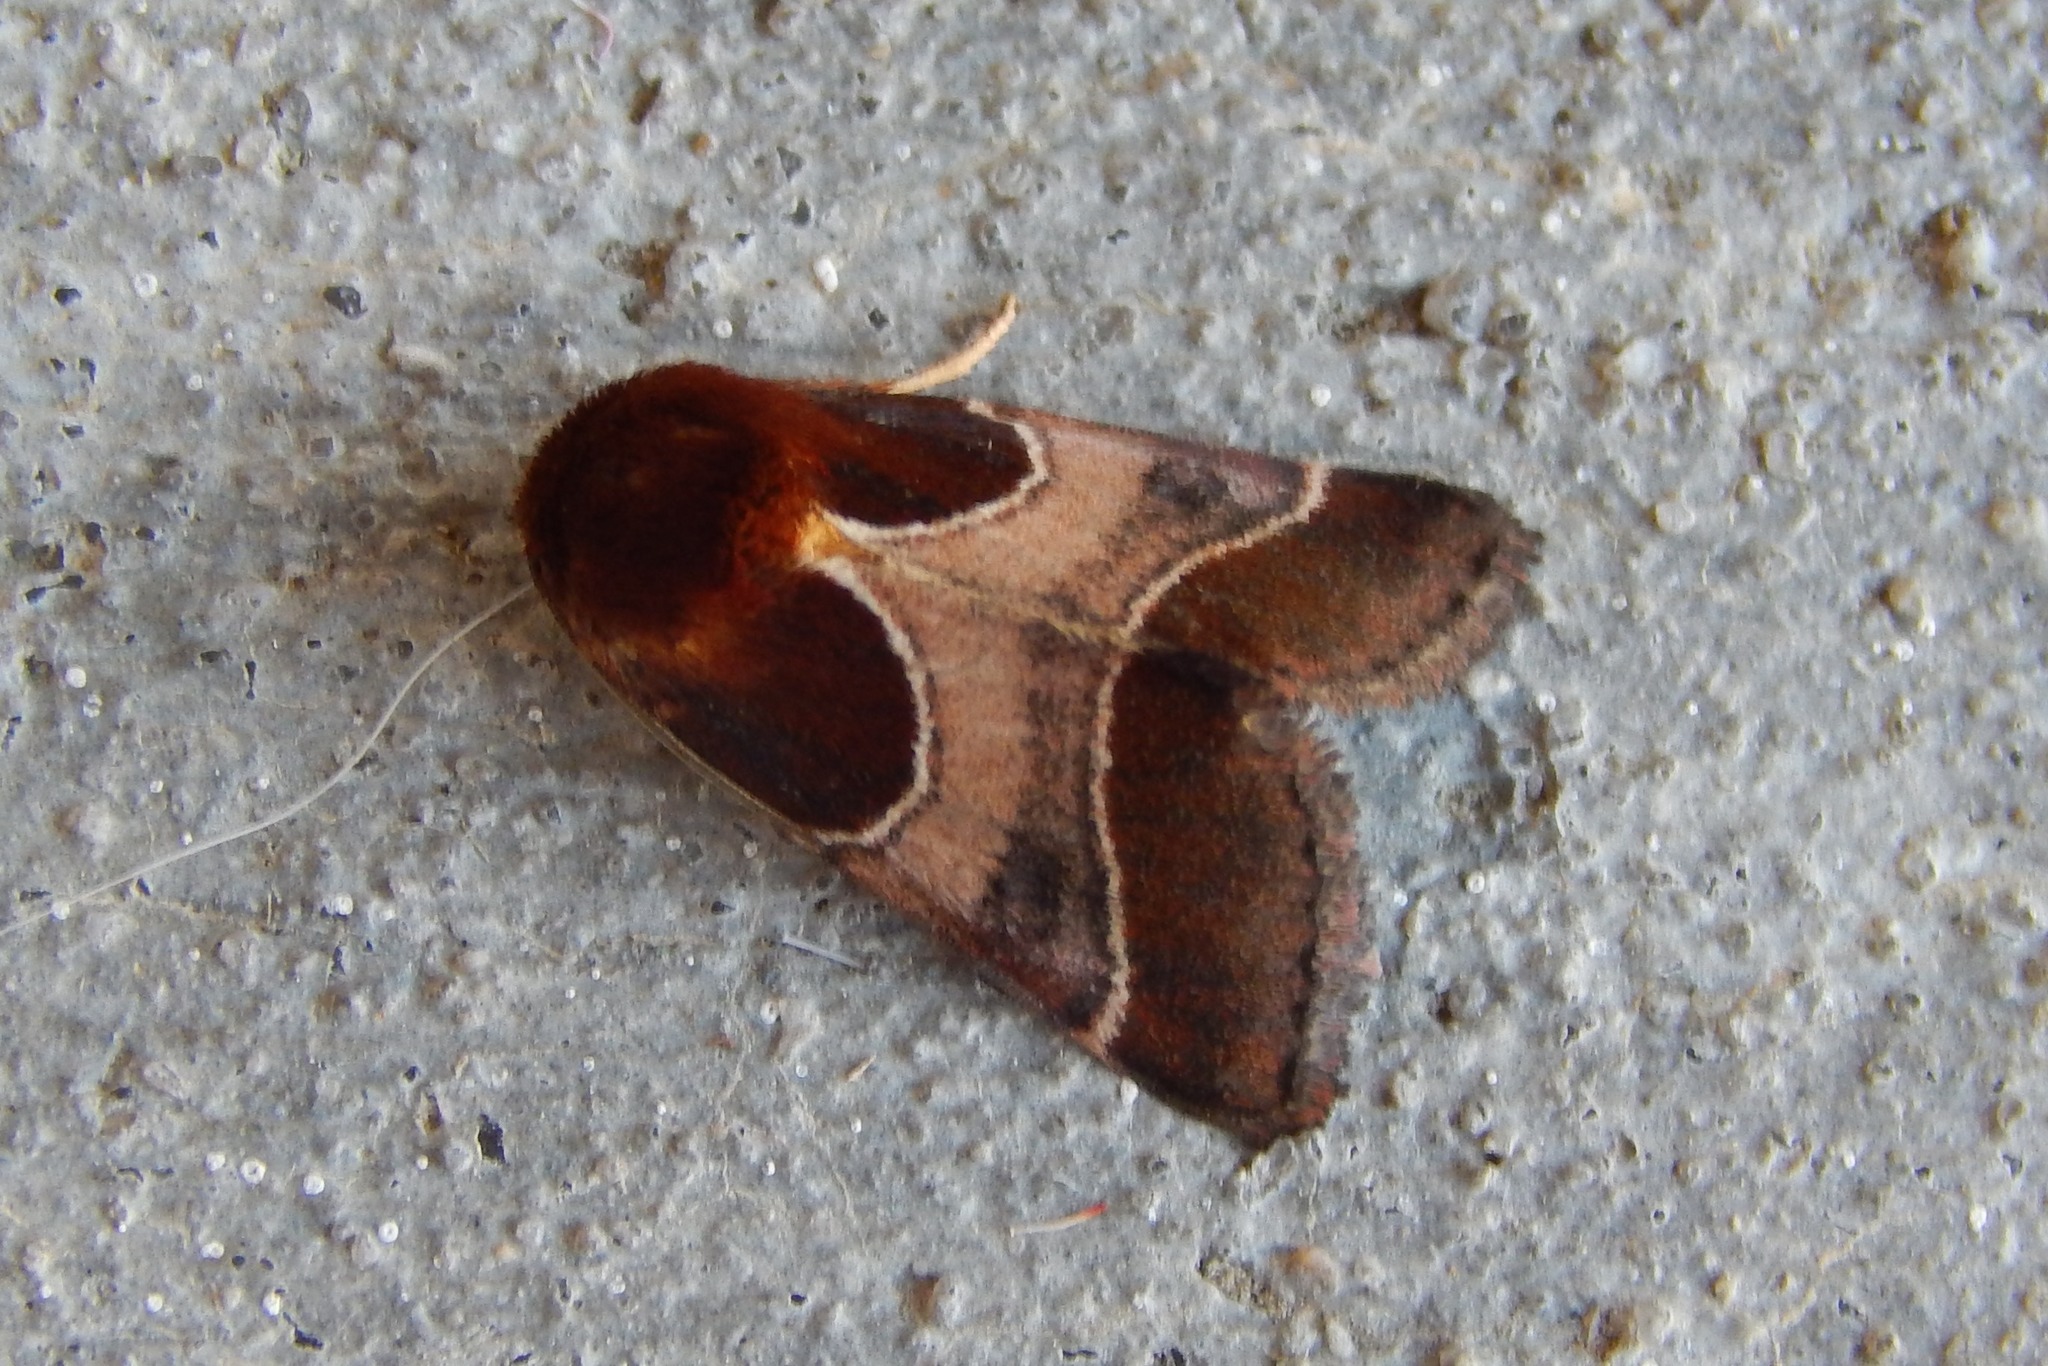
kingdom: Animalia
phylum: Arthropoda
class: Insecta
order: Lepidoptera
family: Noctuidae
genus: Schinia
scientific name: Schinia arcigera
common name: Arcigera flower moth
